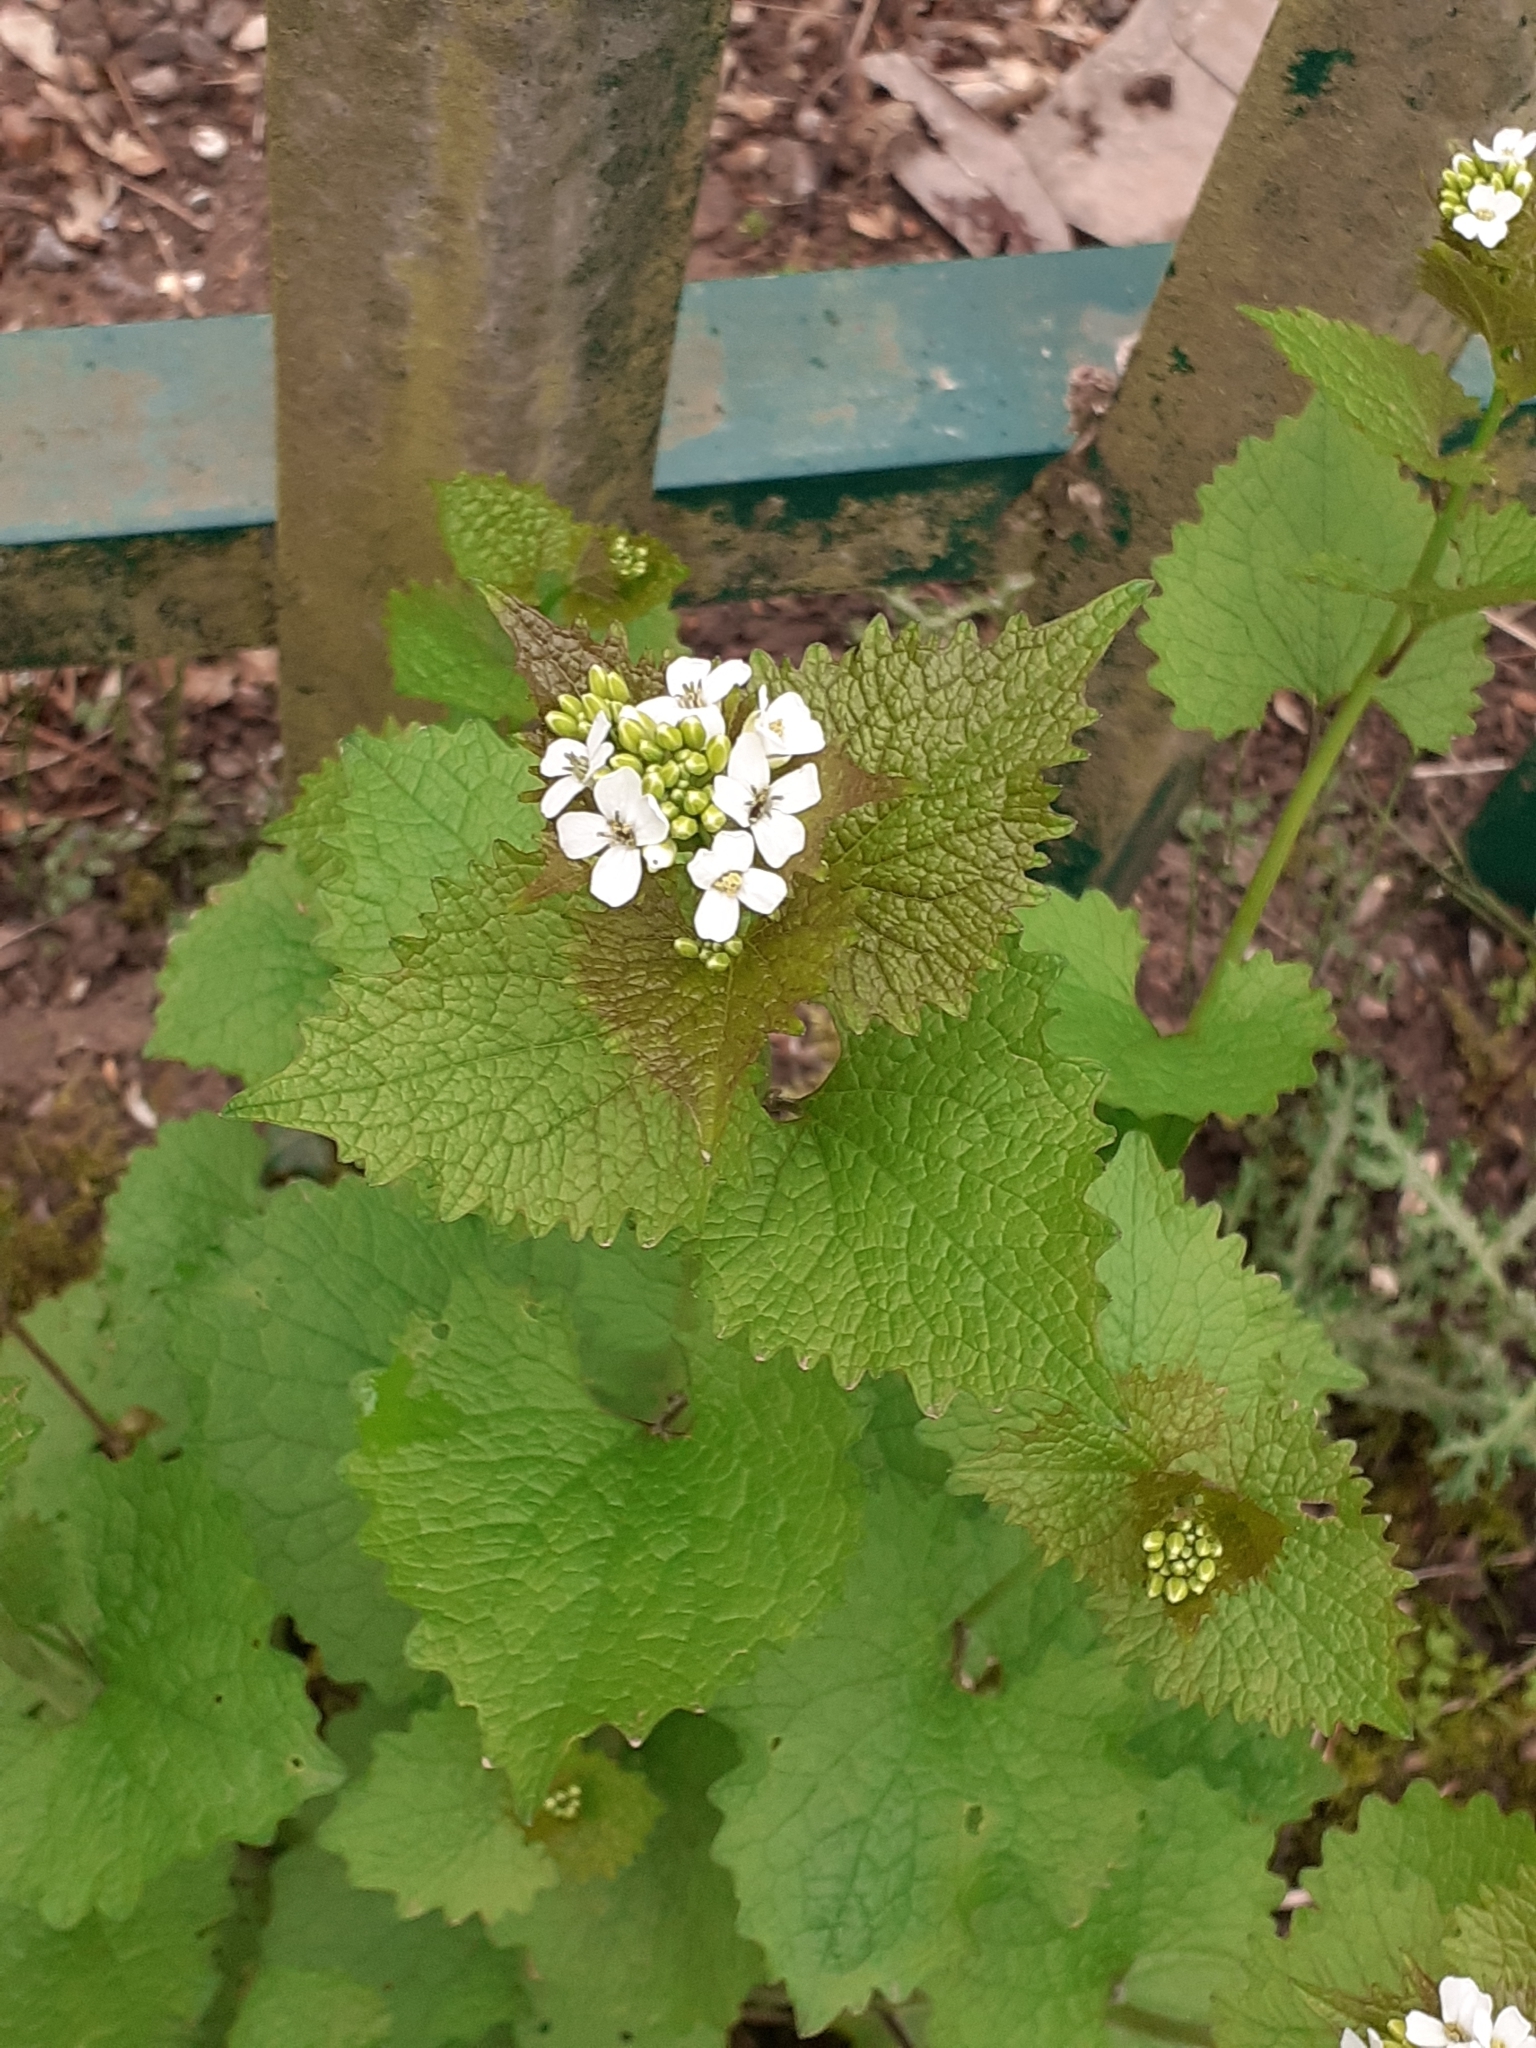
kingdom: Plantae
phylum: Tracheophyta
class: Magnoliopsida
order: Brassicales
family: Brassicaceae
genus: Alliaria
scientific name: Alliaria petiolata
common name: Garlic mustard
